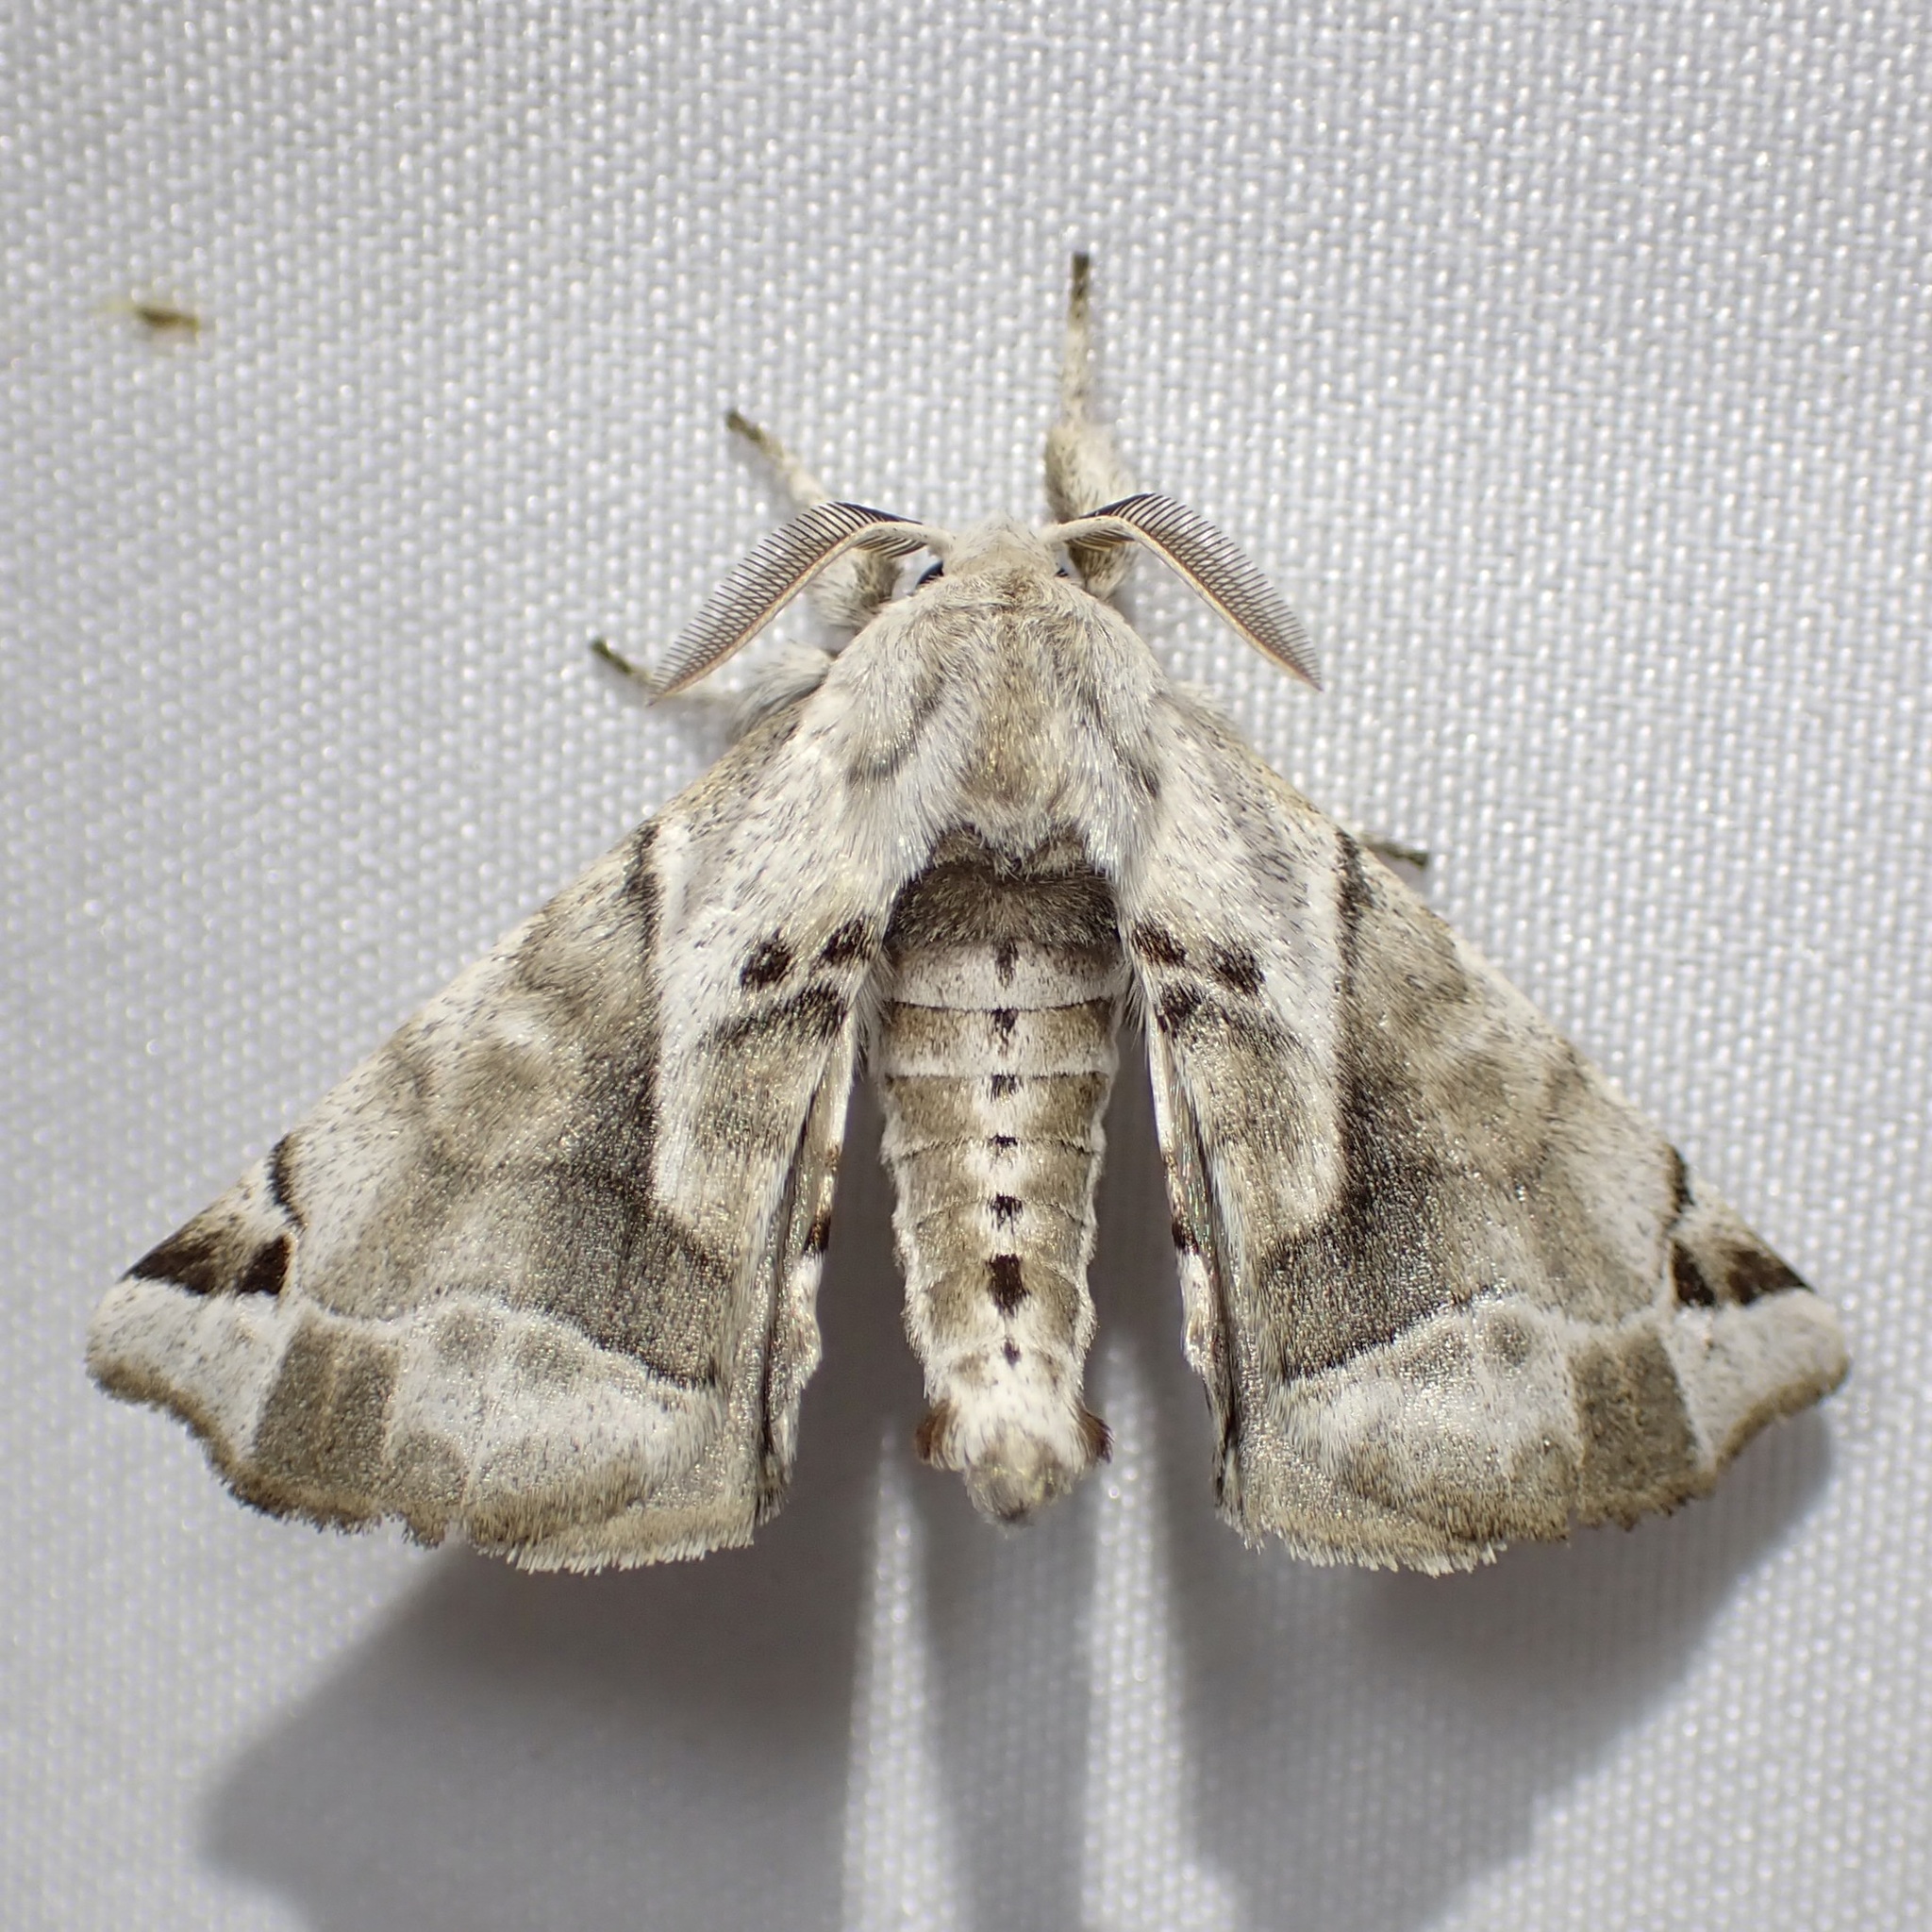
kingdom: Animalia
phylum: Arthropoda
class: Insecta
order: Lepidoptera
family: Apatelodidae
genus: Hygrochroa
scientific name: Hygrochroa Apatelodes pudefacta
